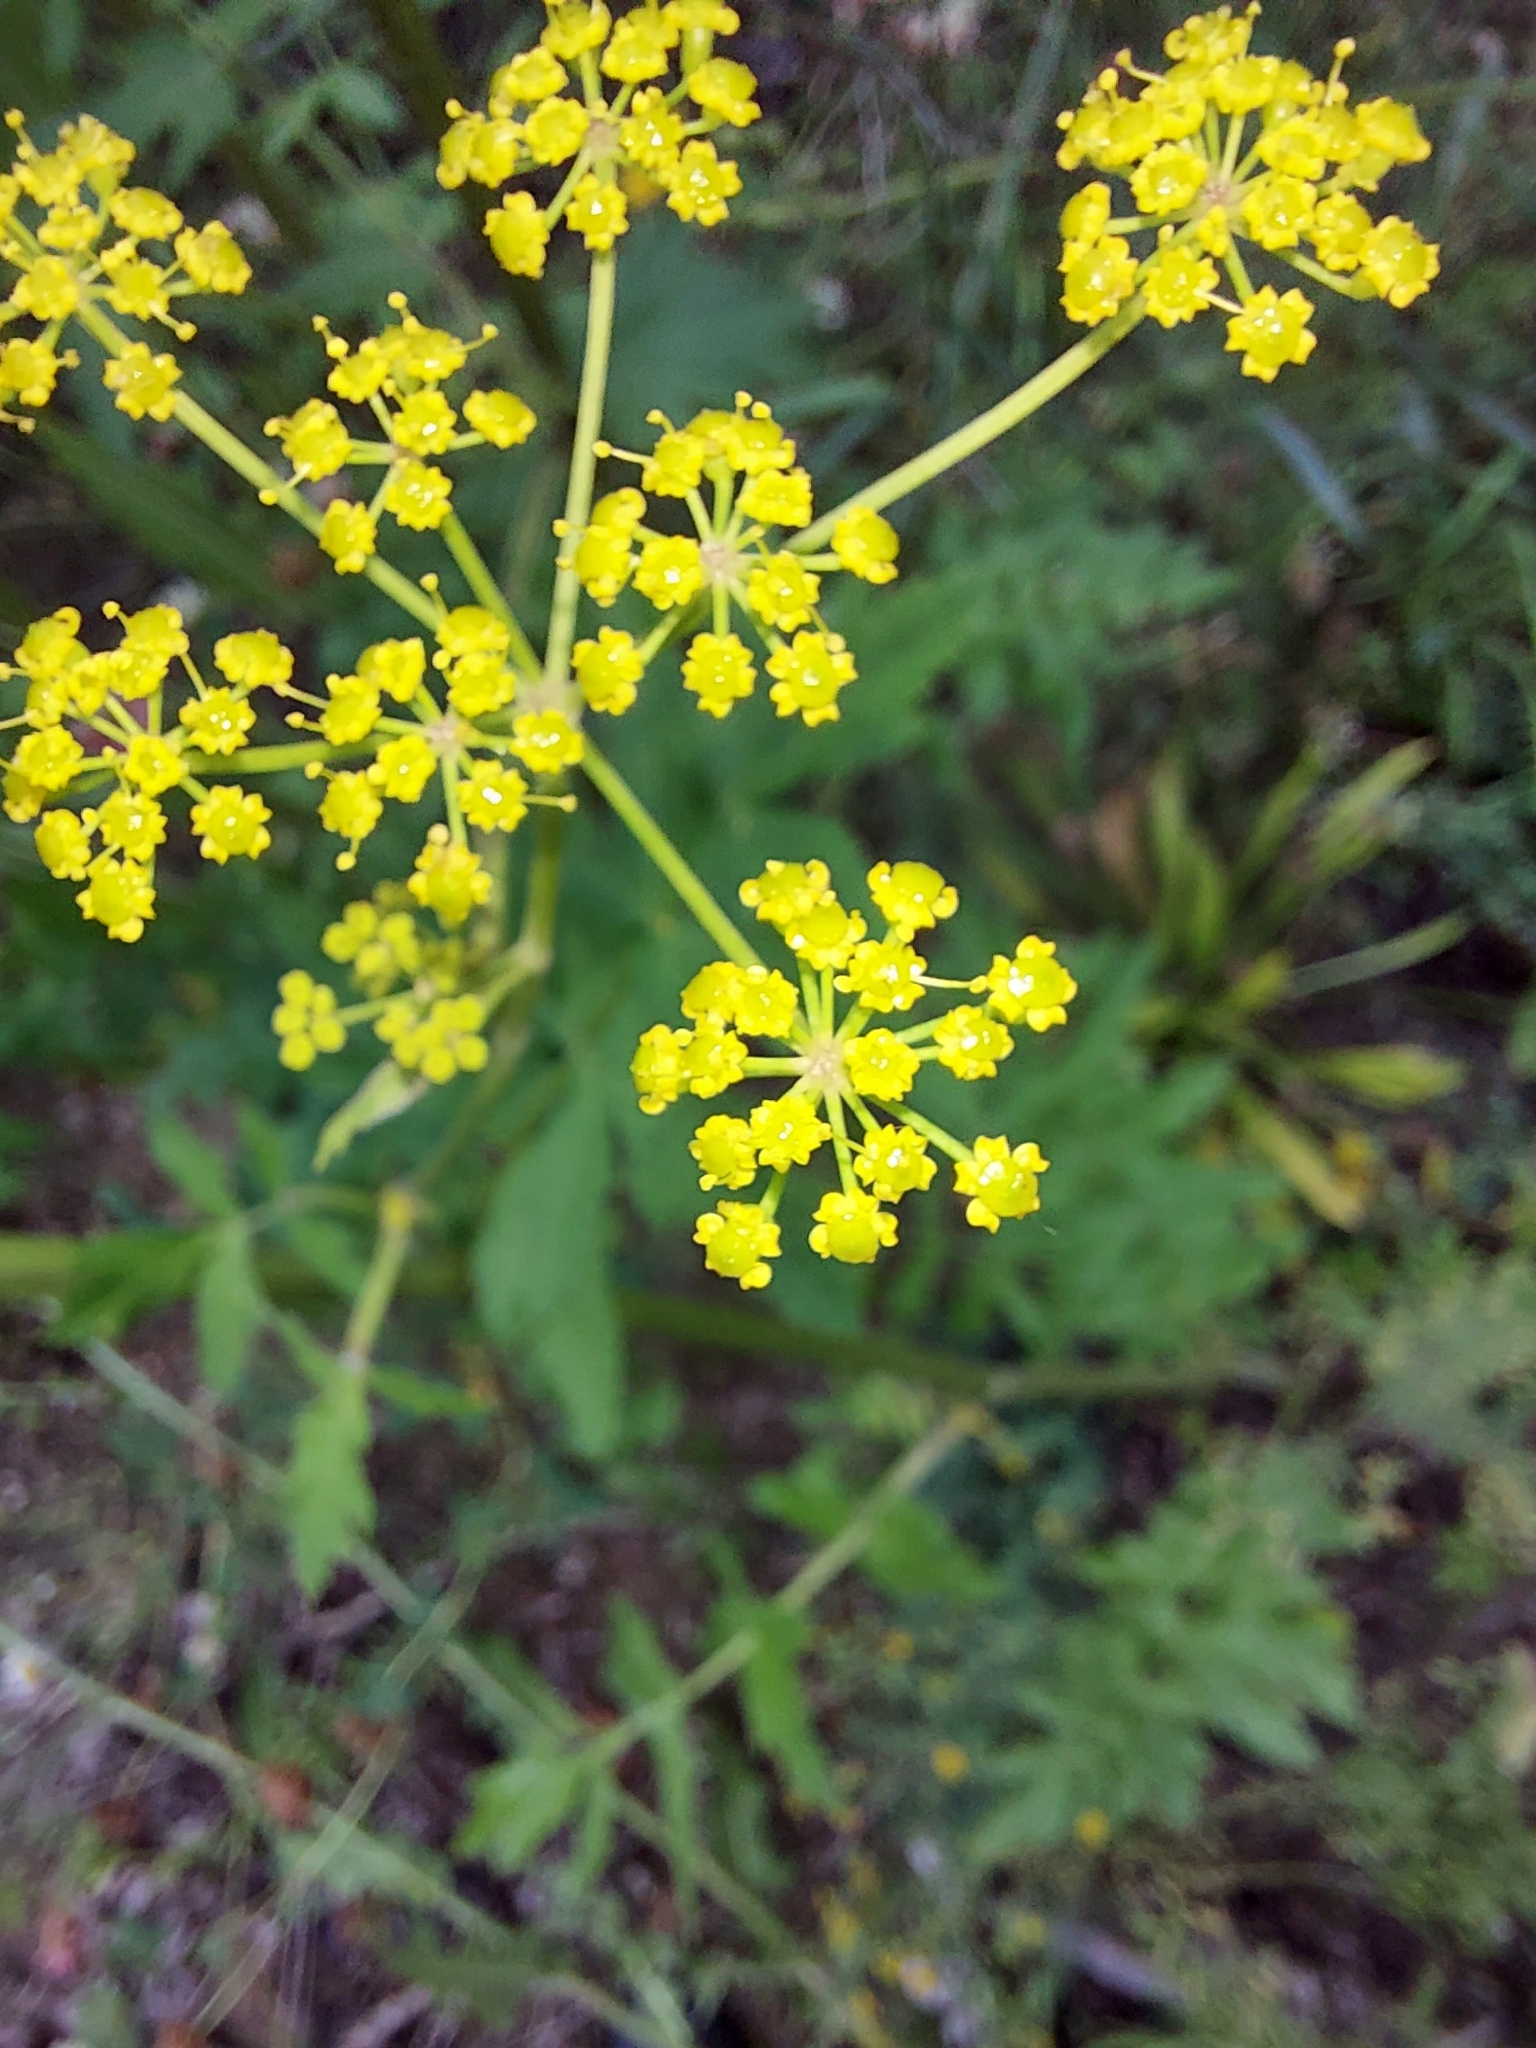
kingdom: Plantae
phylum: Tracheophyta
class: Magnoliopsida
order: Apiales
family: Apiaceae
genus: Pastinaca
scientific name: Pastinaca sativa
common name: Wild parsnip
